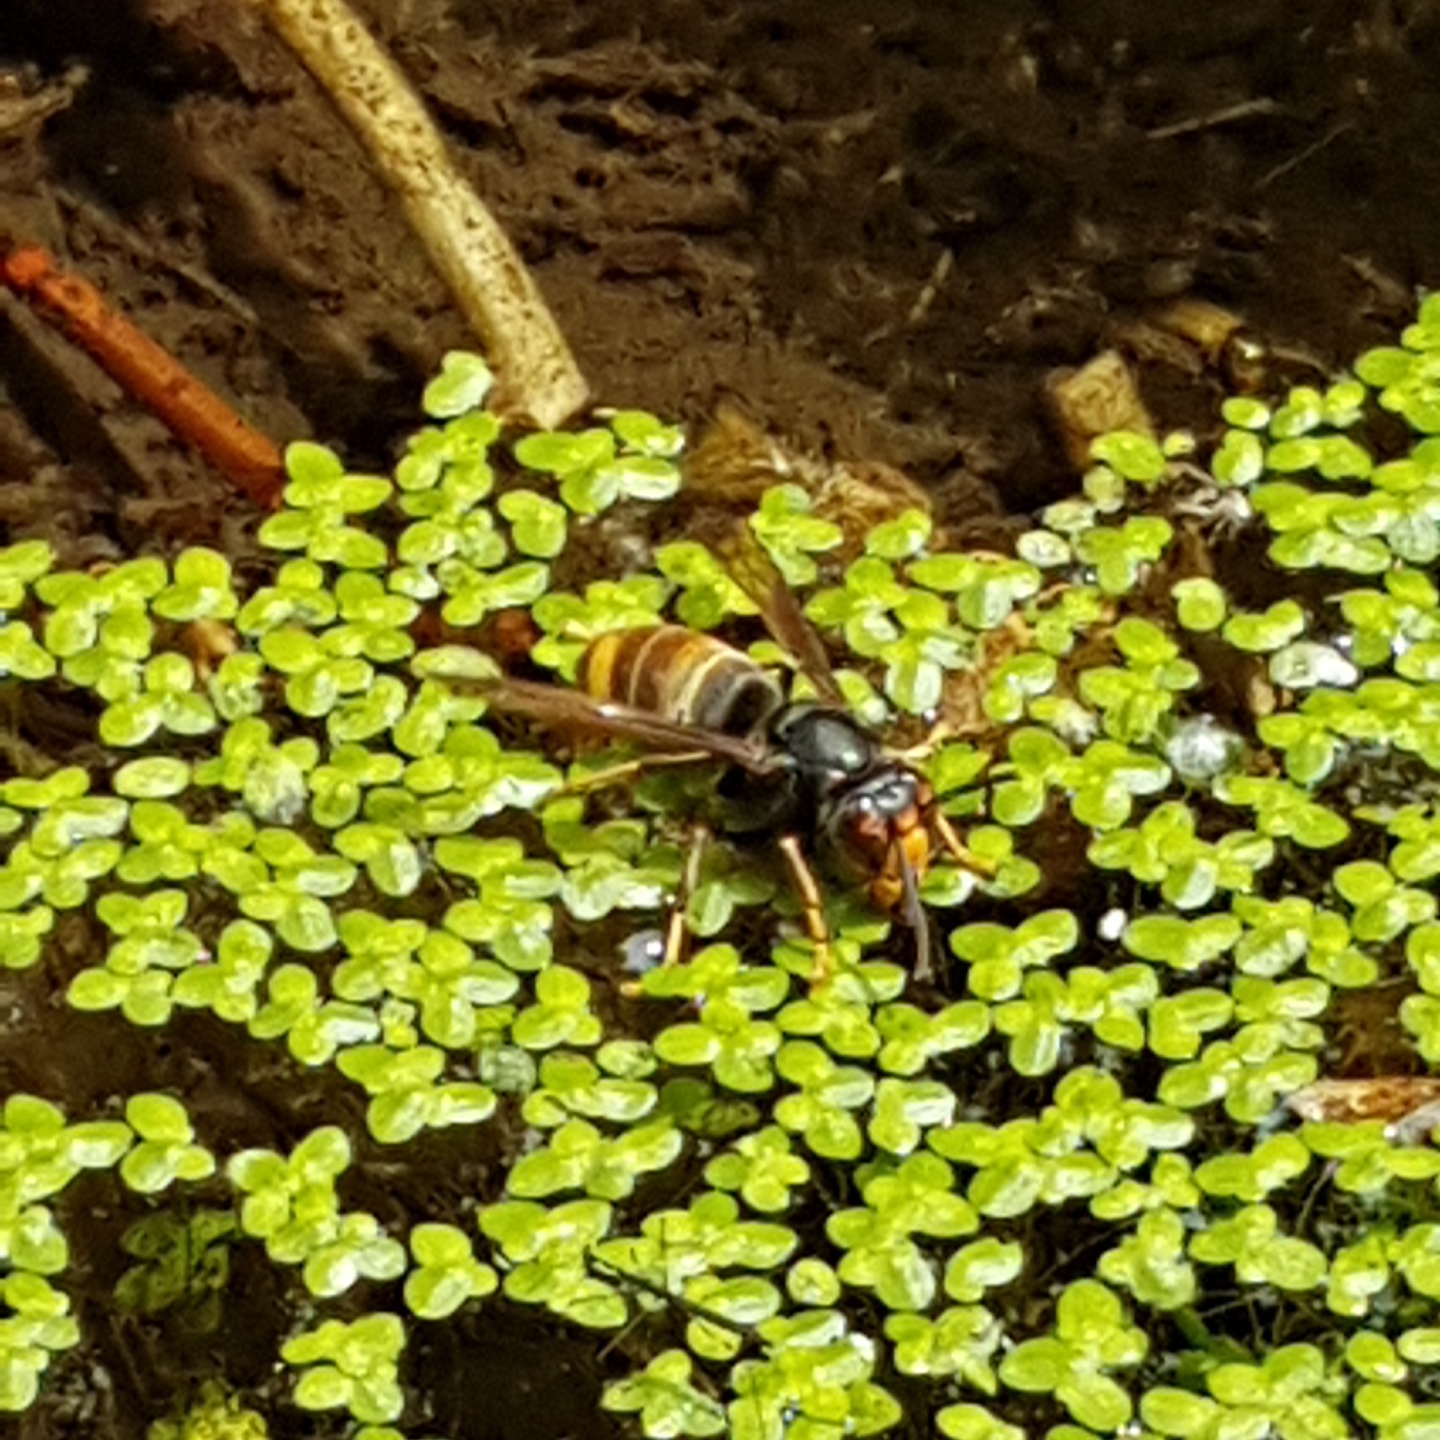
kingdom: Animalia
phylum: Arthropoda
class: Insecta
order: Hymenoptera
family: Vespidae
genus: Vespa
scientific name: Vespa velutina
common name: Asian hornet
